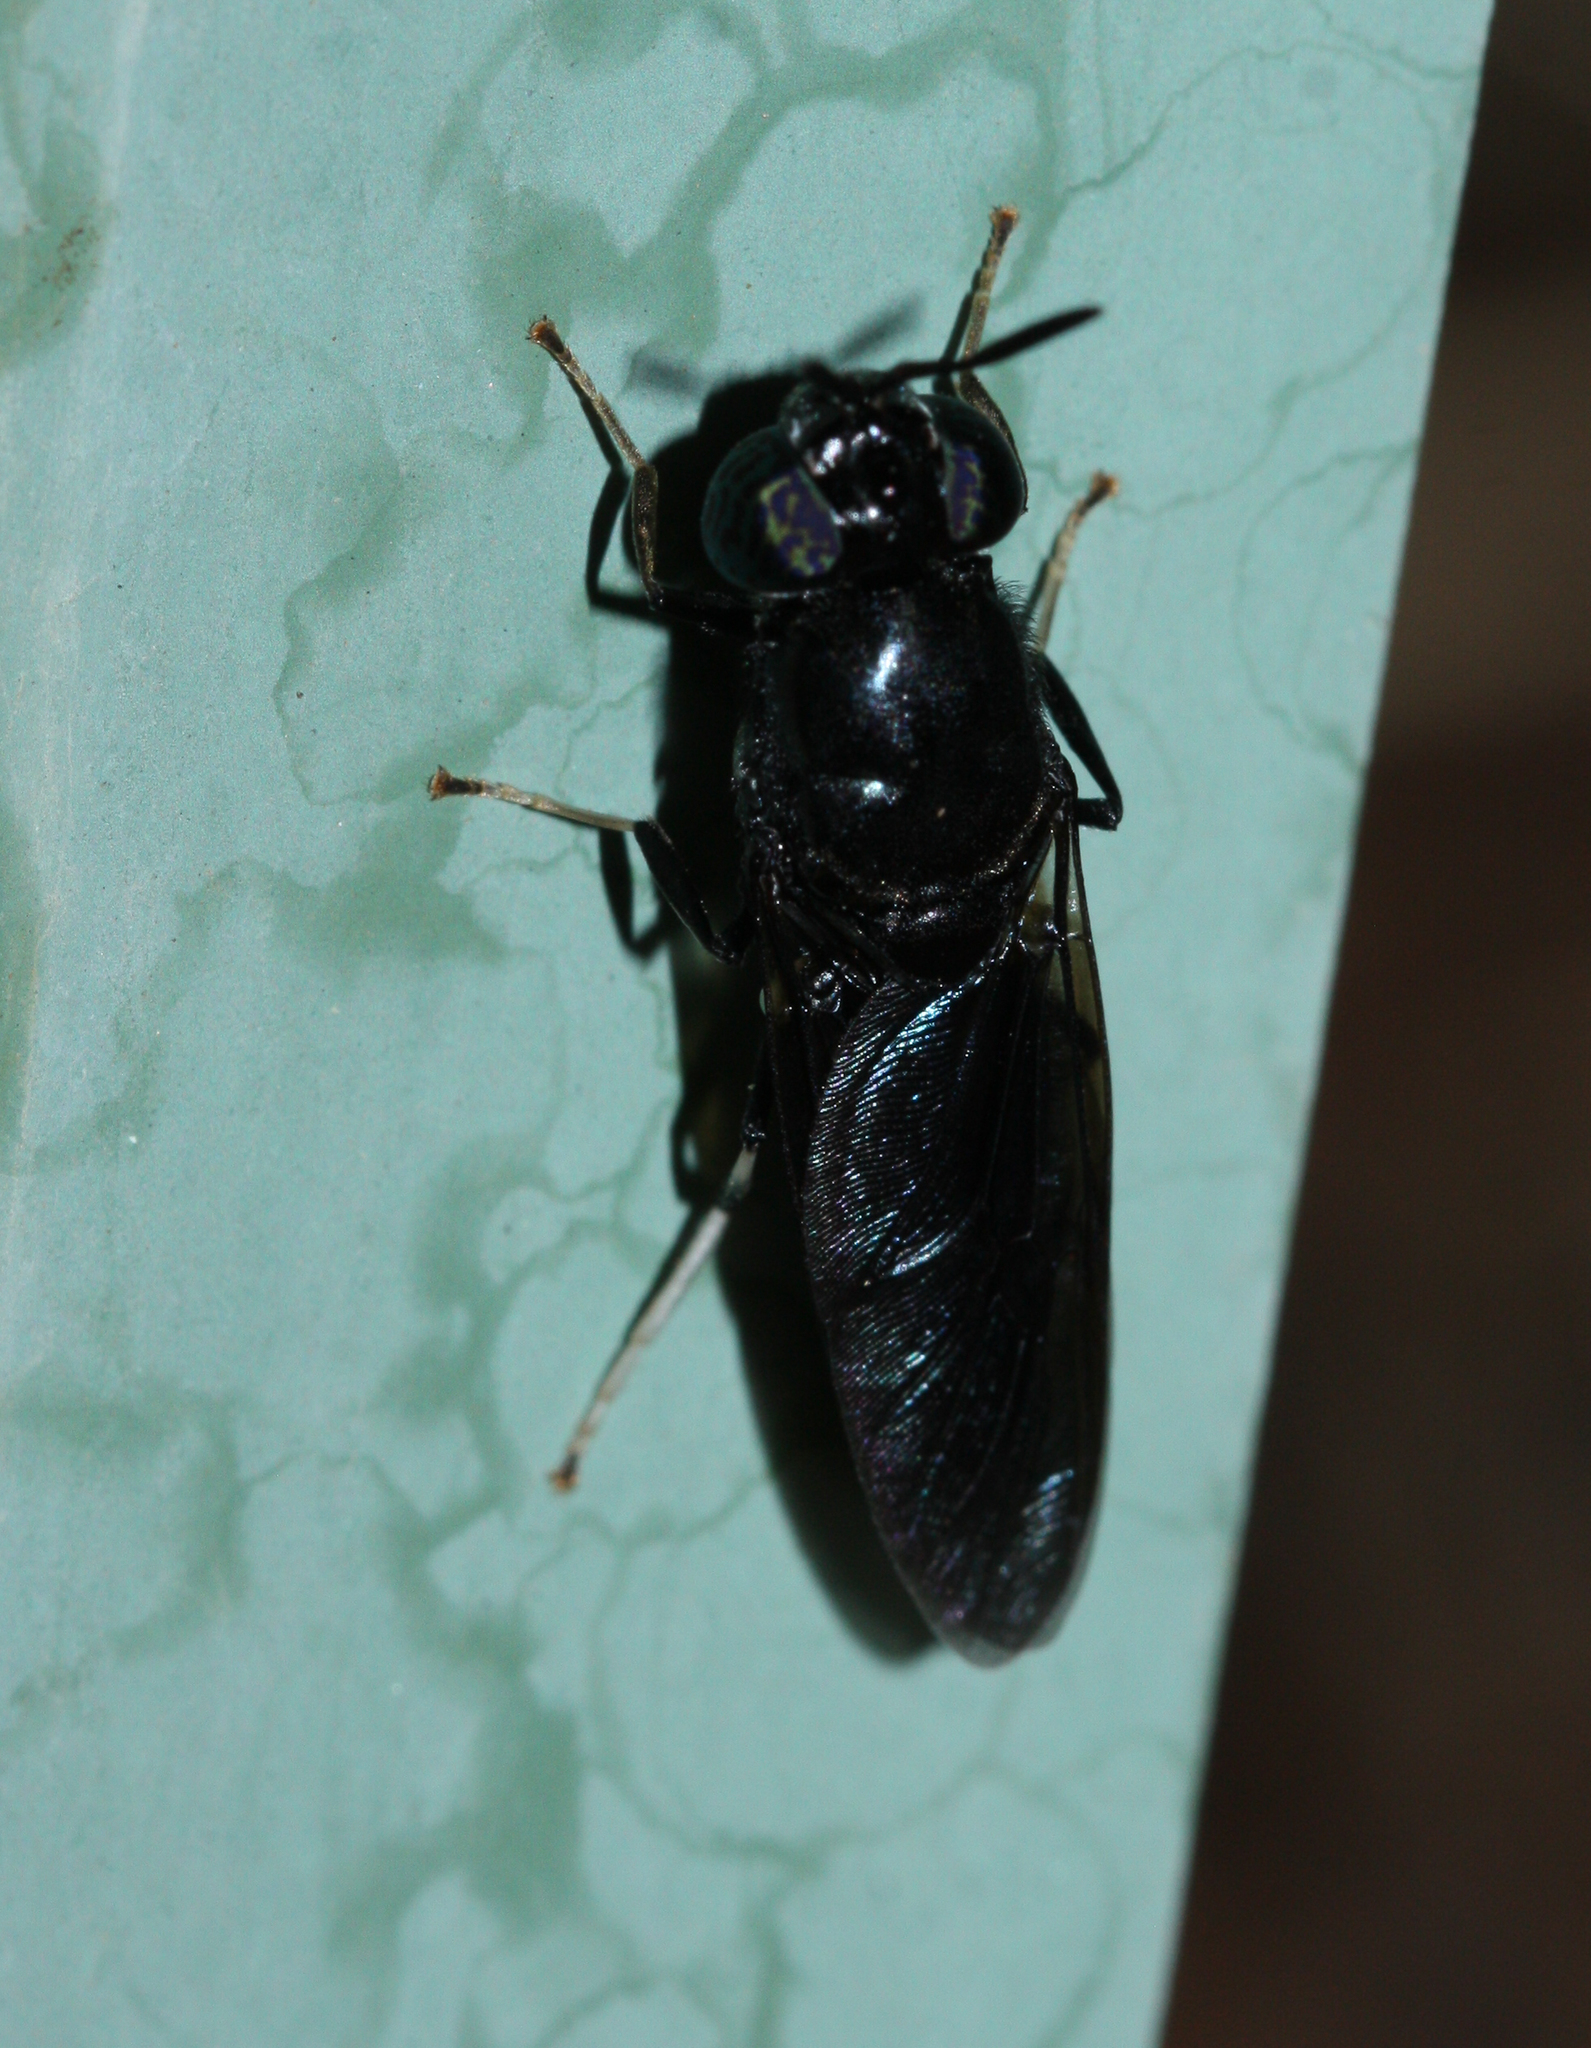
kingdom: Animalia
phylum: Arthropoda
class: Insecta
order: Diptera
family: Stratiomyidae
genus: Hermetia
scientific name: Hermetia illucens
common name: Black soldier fly
